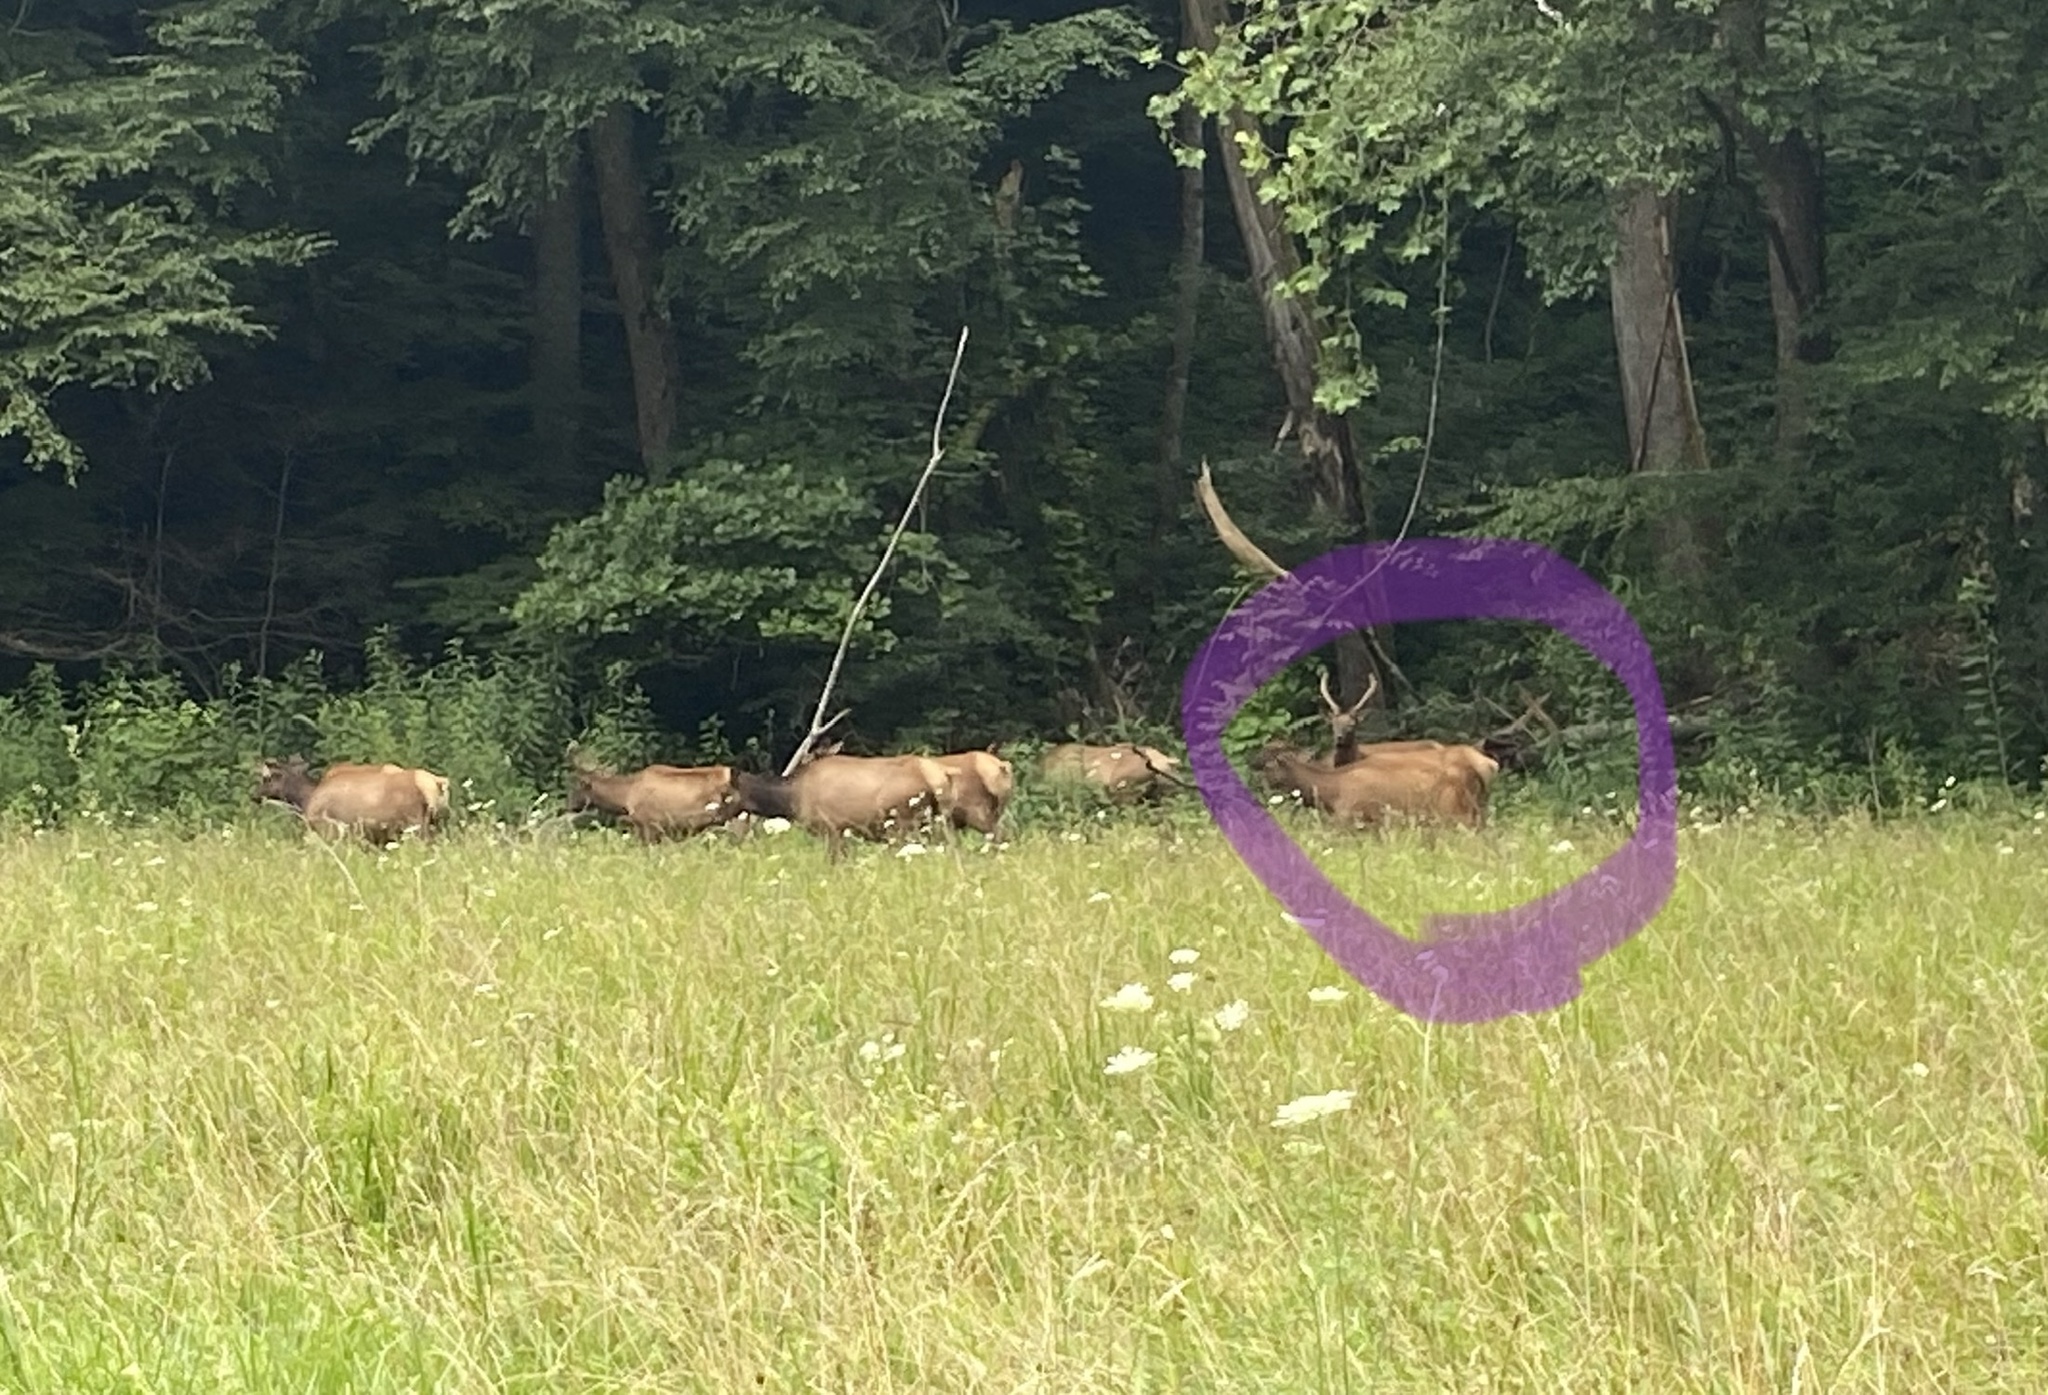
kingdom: Animalia
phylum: Chordata
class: Mammalia
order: Artiodactyla
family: Cervidae
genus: Cervus
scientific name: Cervus elaphus
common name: Red deer
